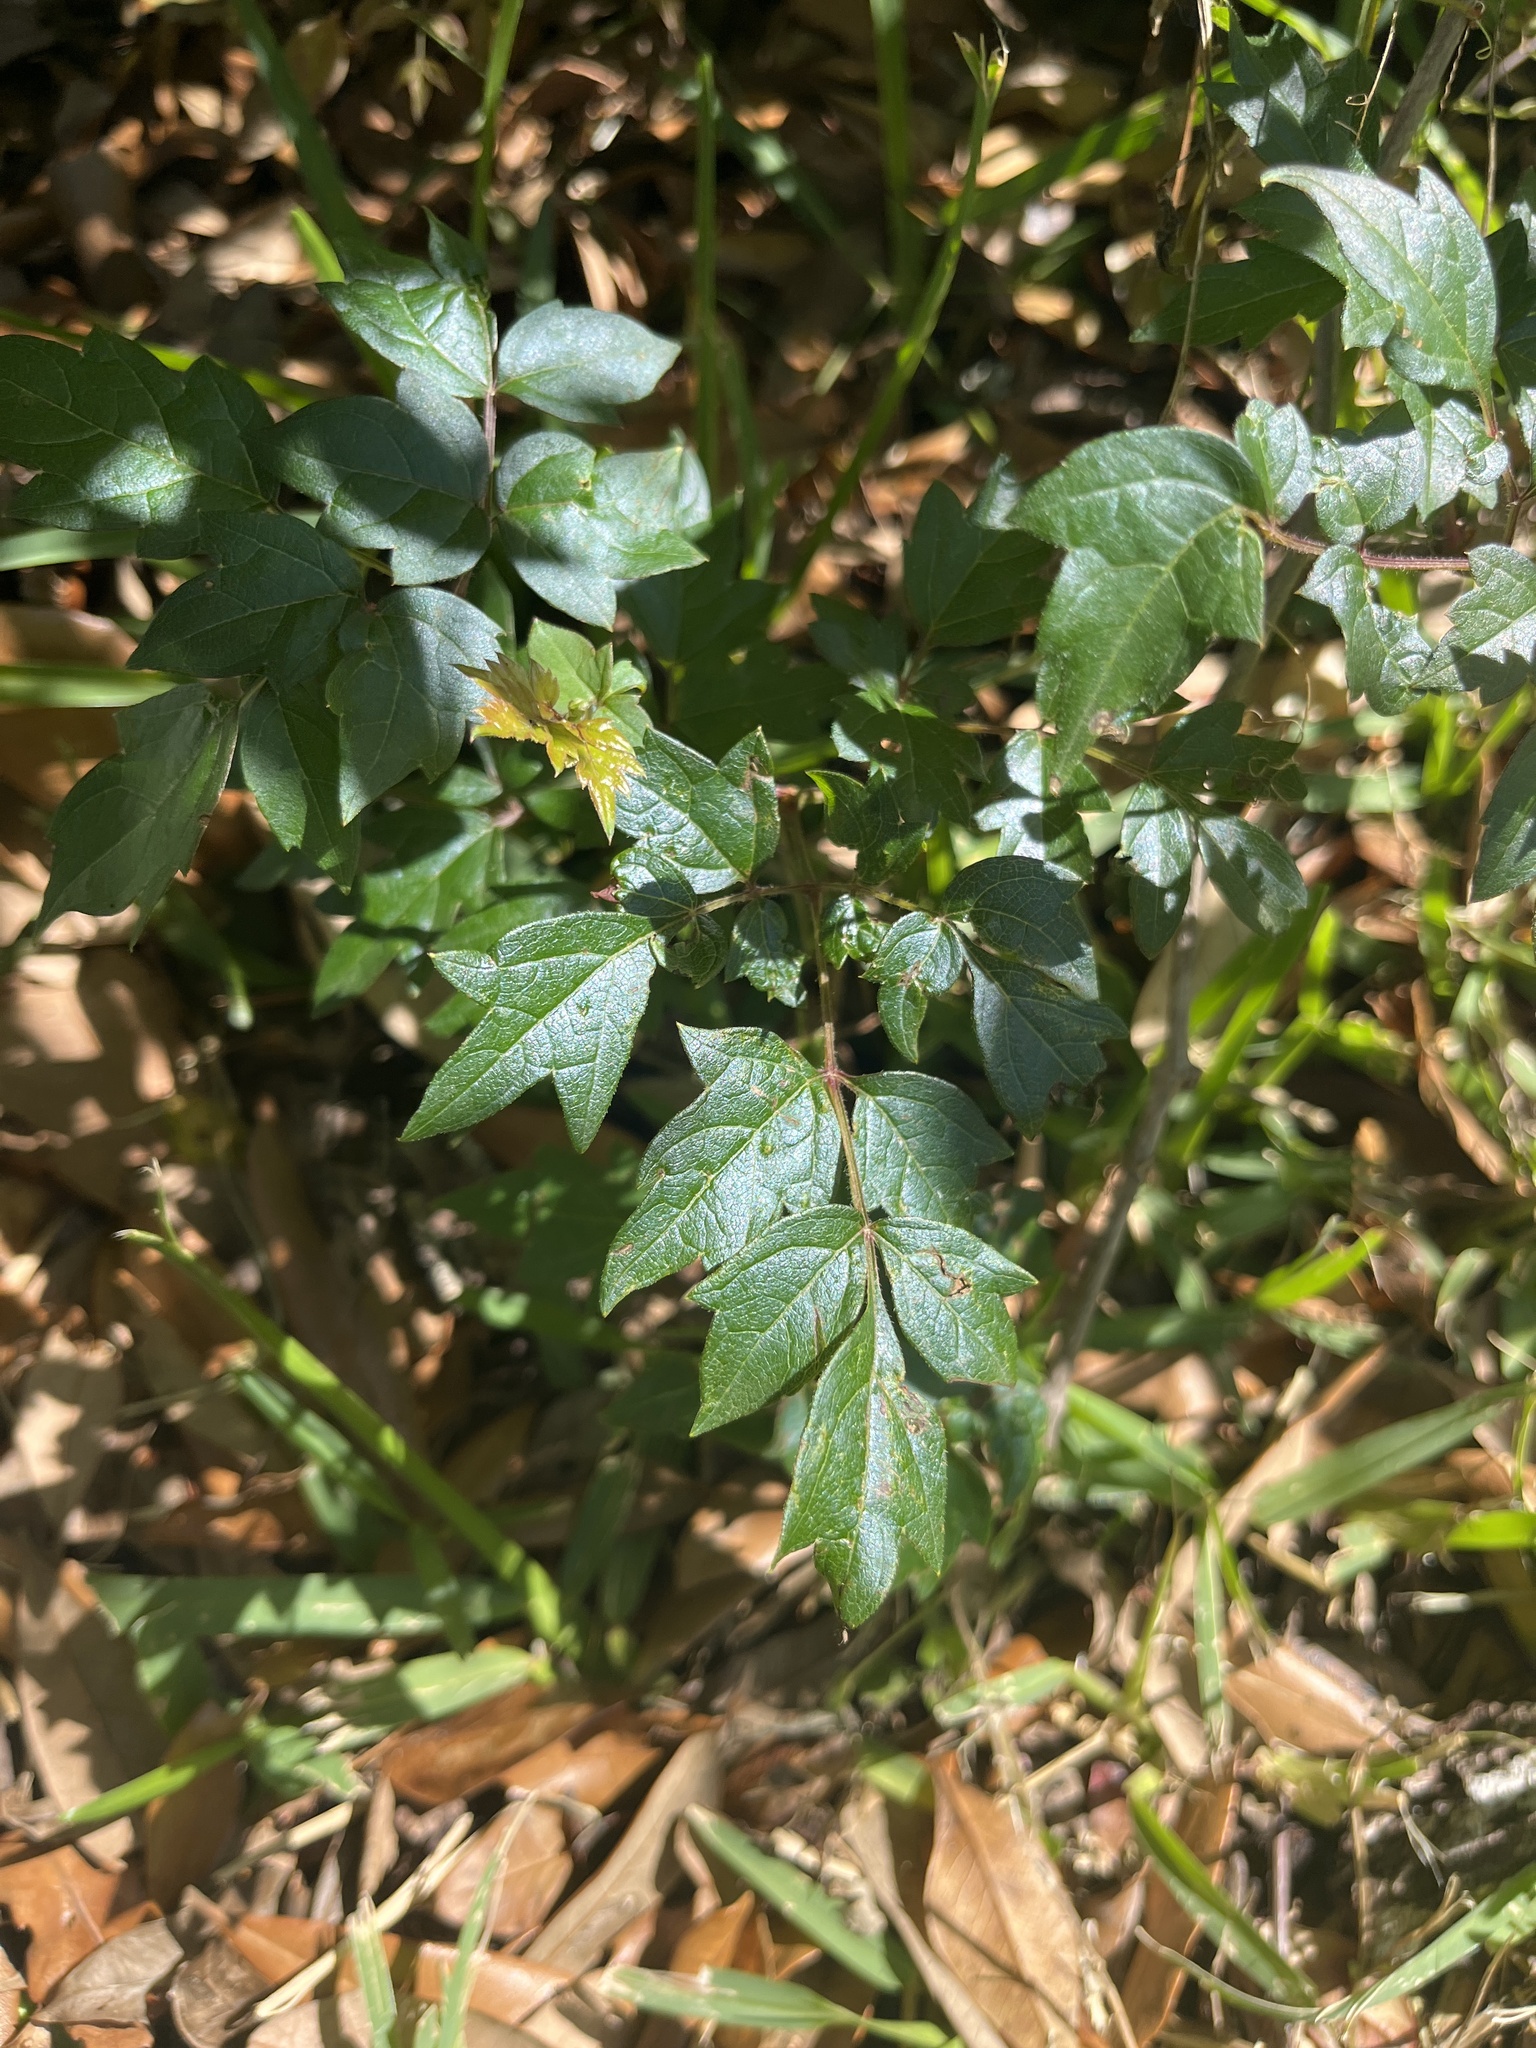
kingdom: Plantae
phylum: Tracheophyta
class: Magnoliopsida
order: Vitales
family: Vitaceae
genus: Nekemias
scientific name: Nekemias arborea
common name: Peppervine
